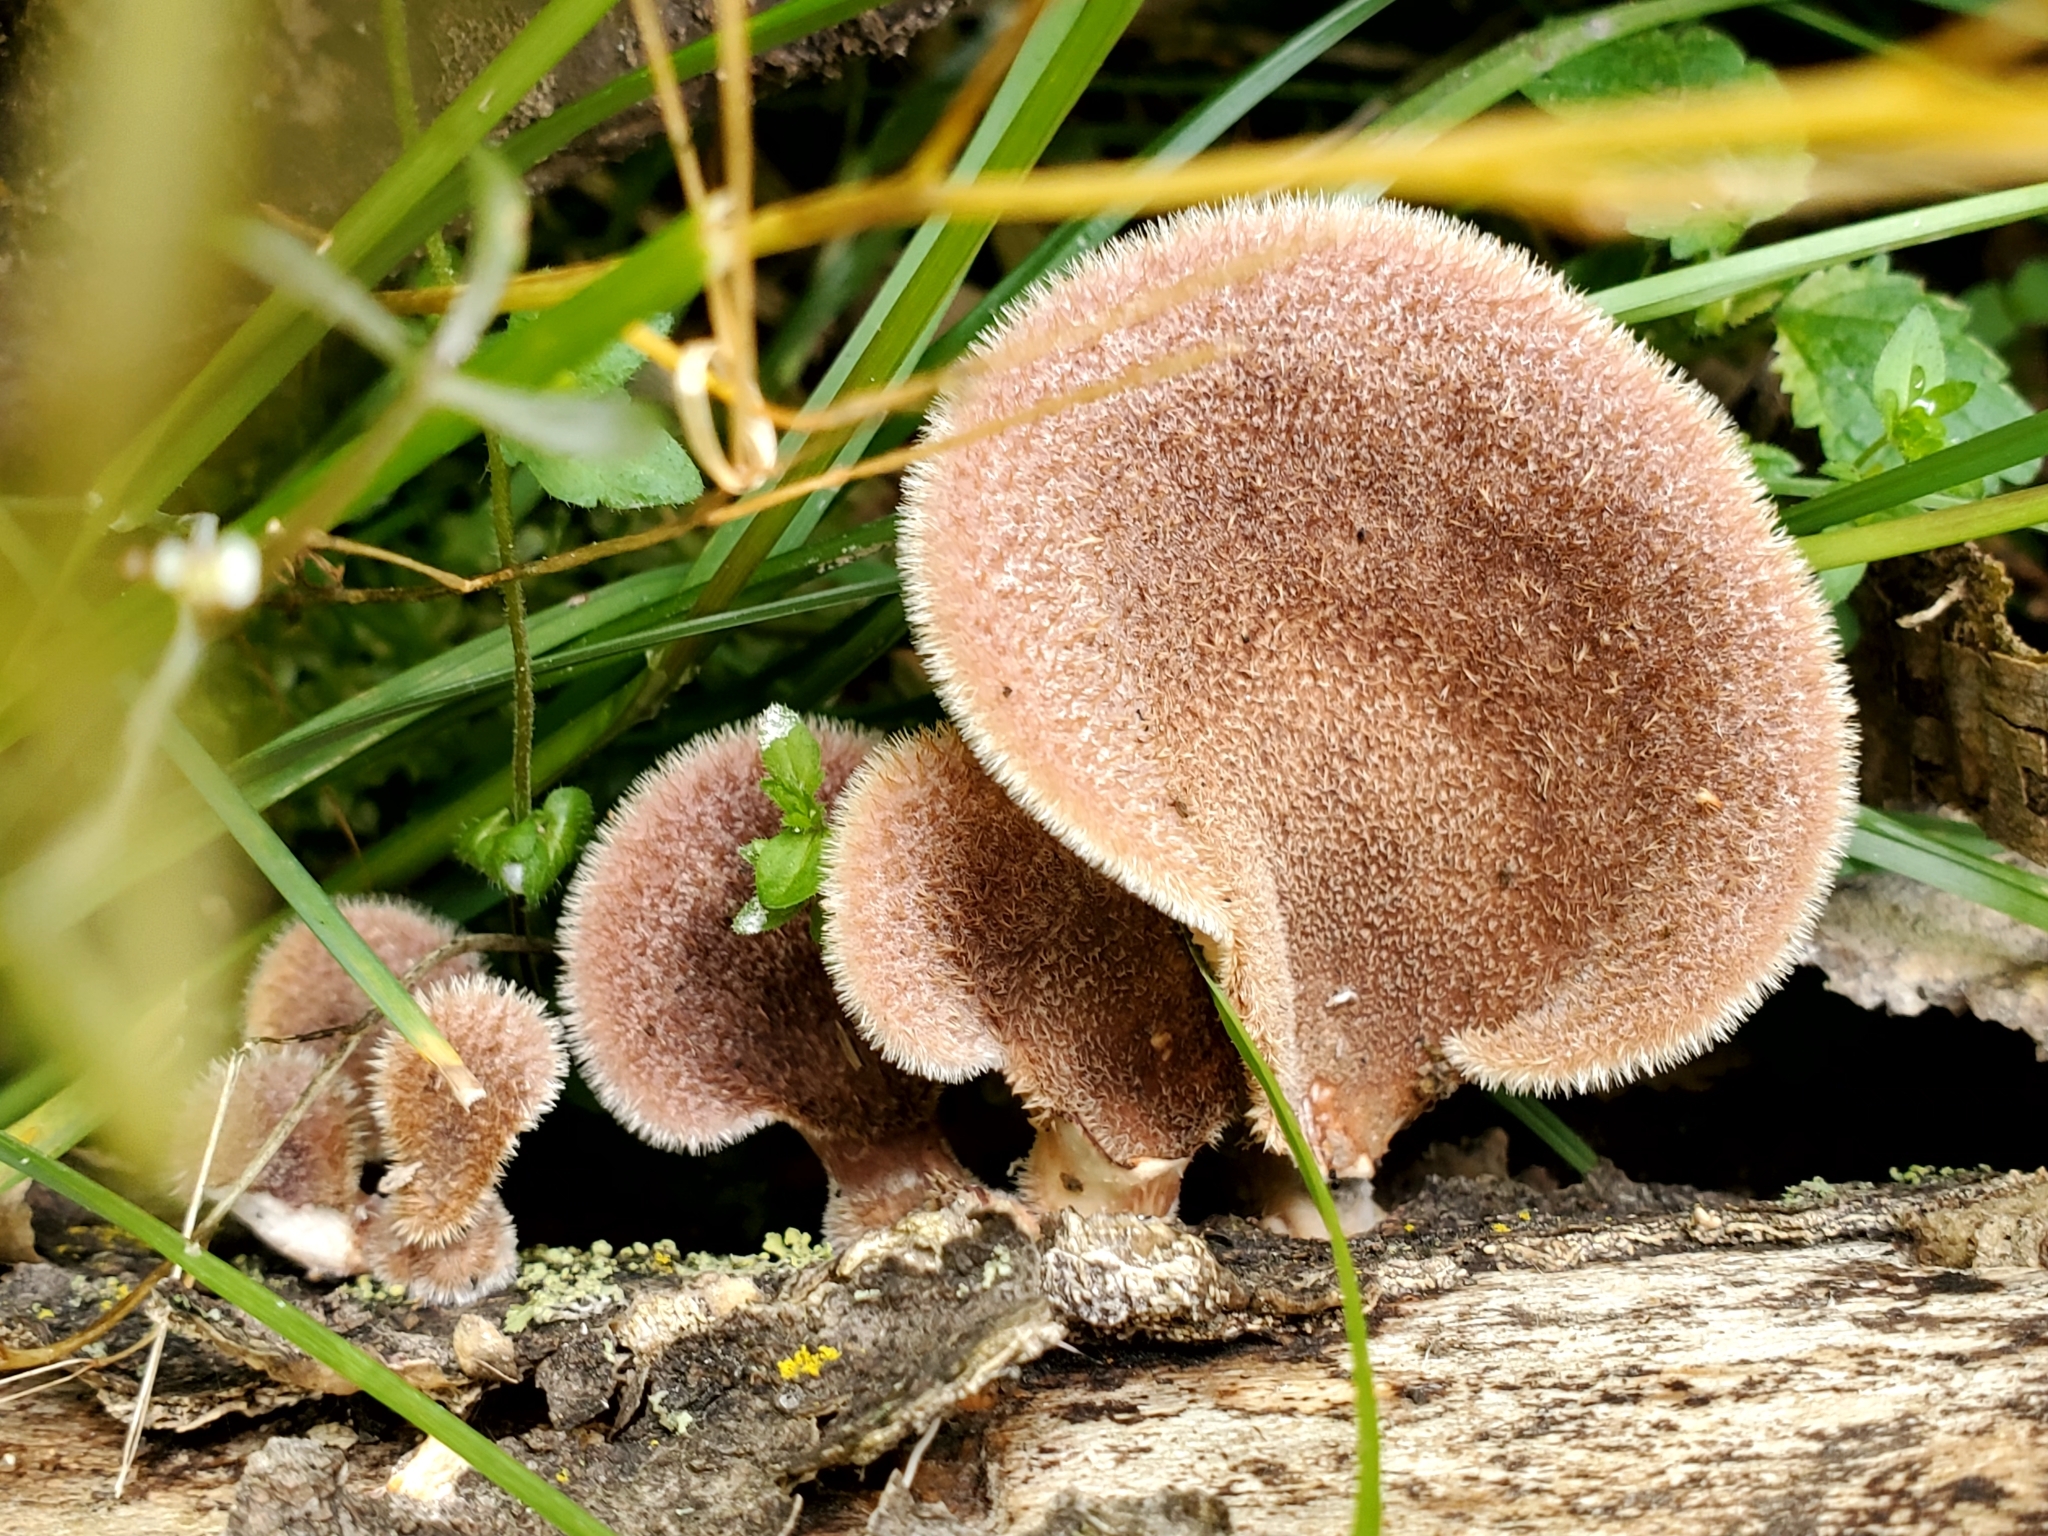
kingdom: Fungi
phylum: Basidiomycota
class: Agaricomycetes
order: Polyporales
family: Panaceae
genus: Panus
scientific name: Panus neostrigosus
